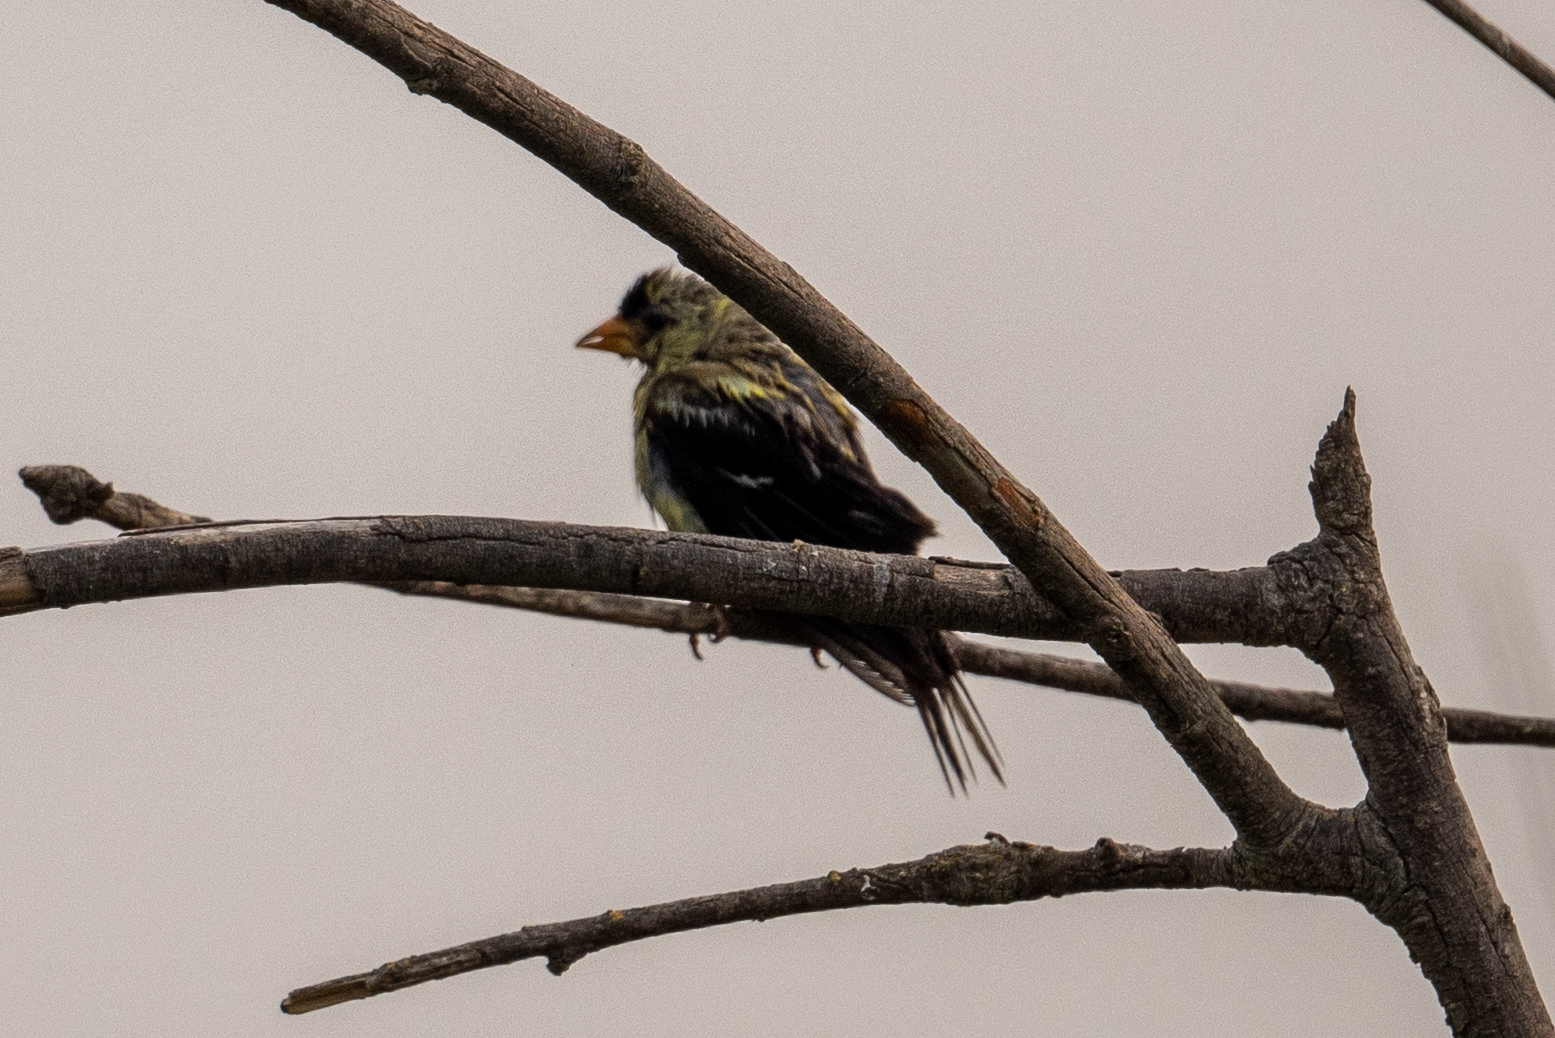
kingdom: Animalia
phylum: Chordata
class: Aves
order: Passeriformes
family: Fringillidae
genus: Spinus
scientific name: Spinus tristis
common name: American goldfinch
